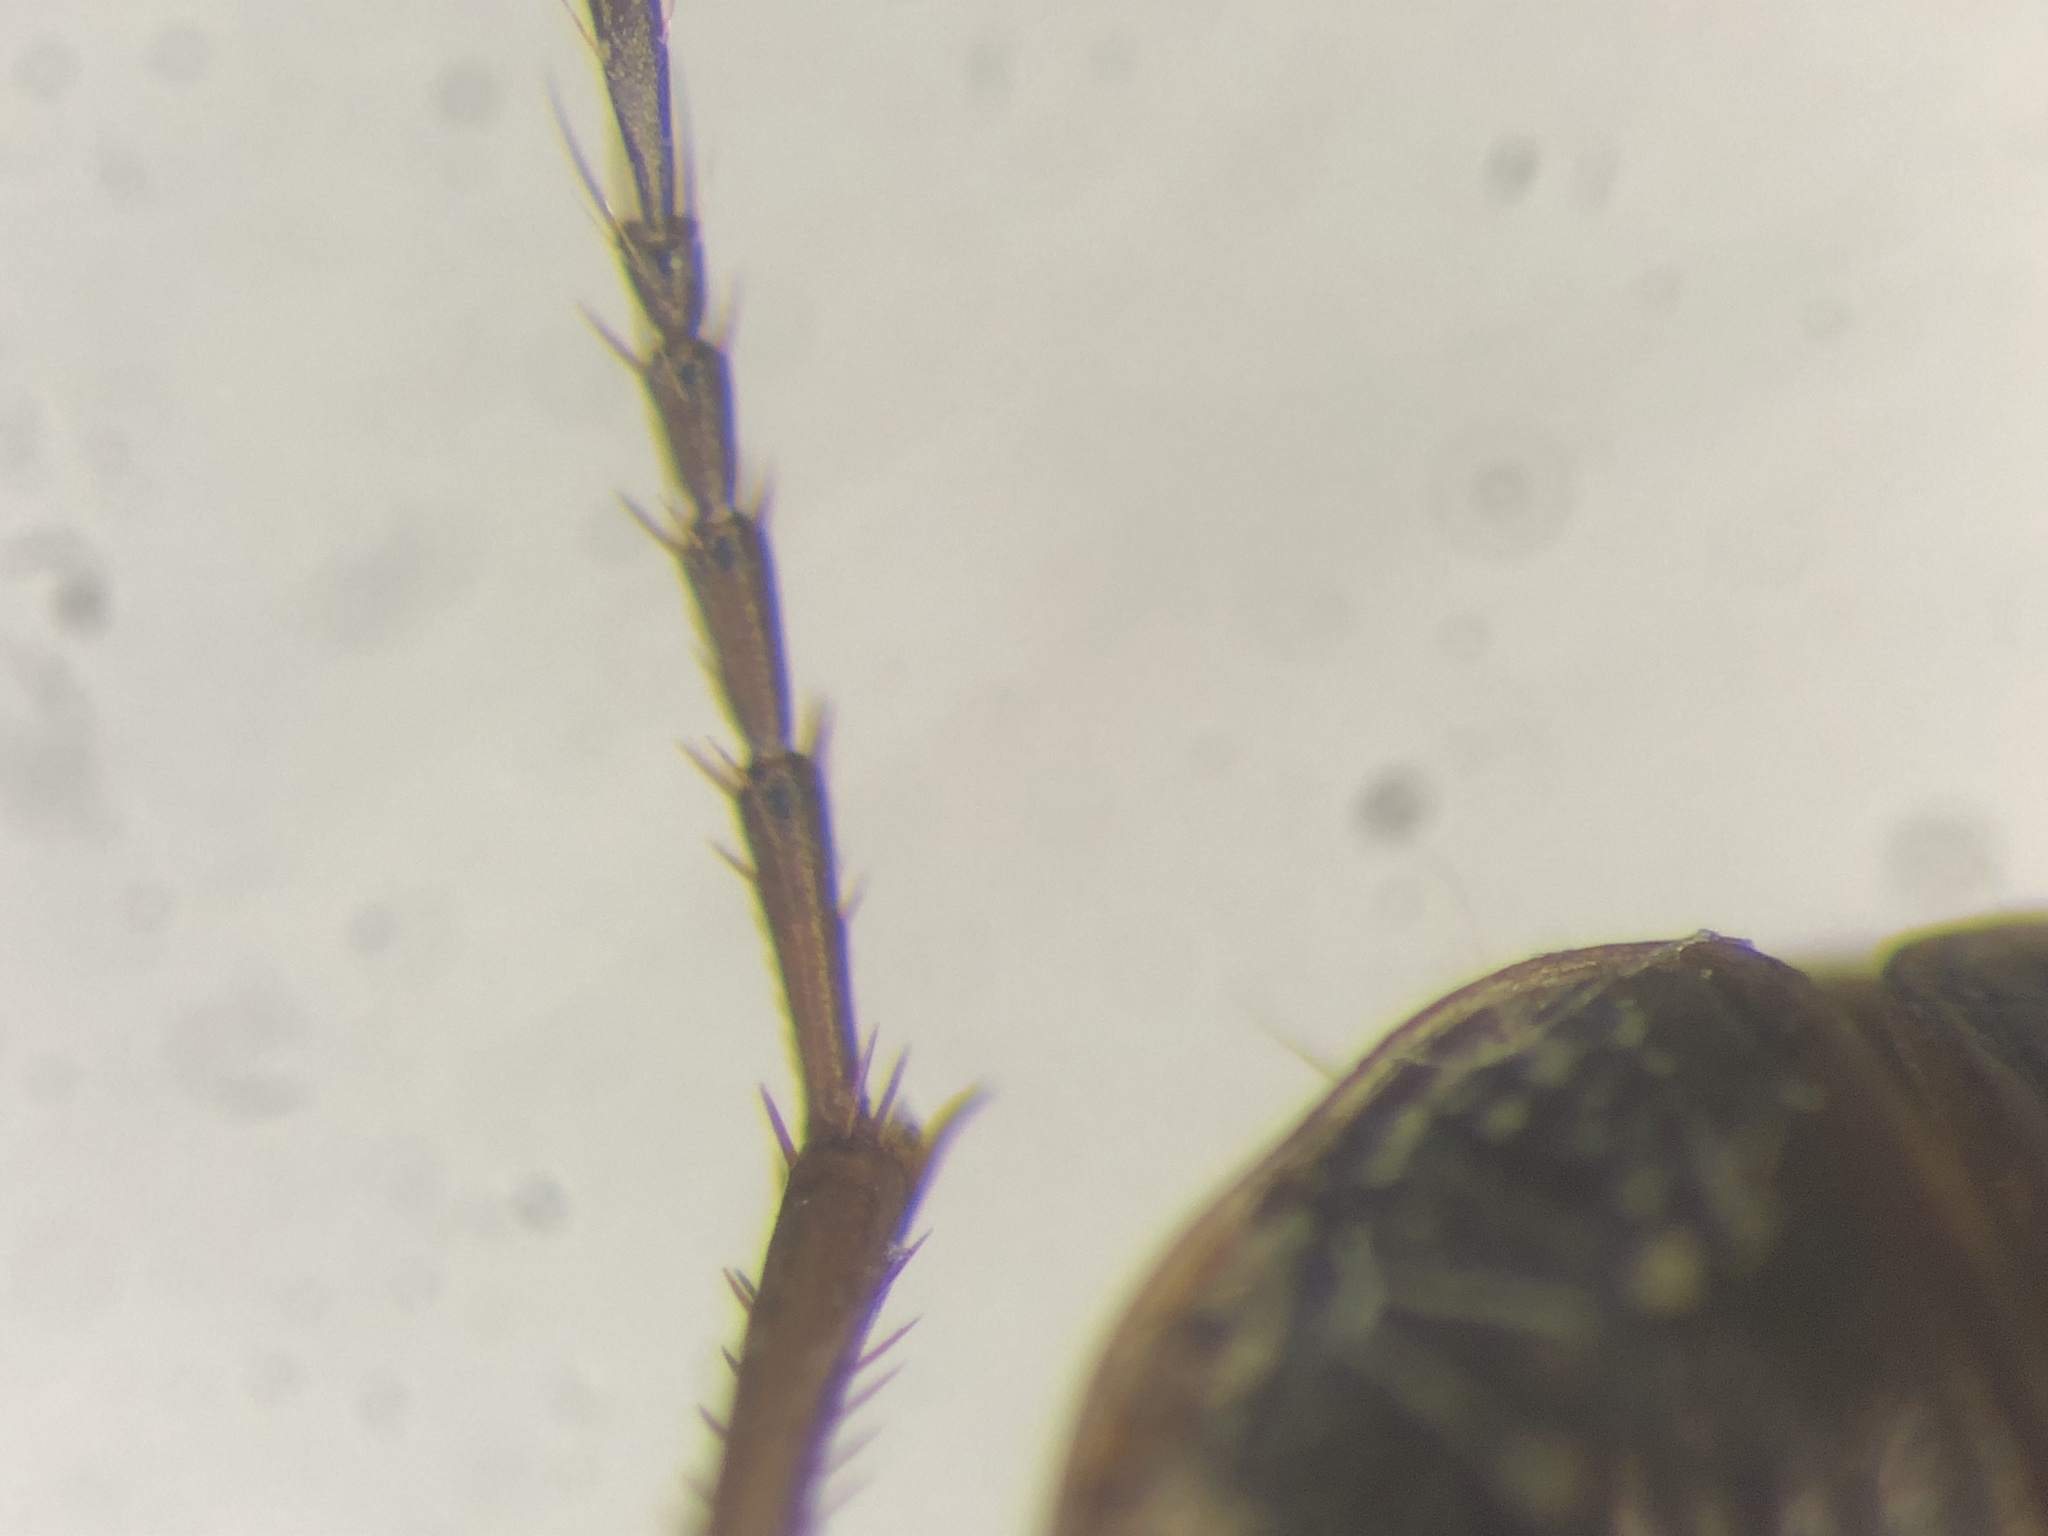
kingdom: Animalia
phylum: Arthropoda
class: Insecta
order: Coleoptera
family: Carabidae
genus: Agonum
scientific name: Agonum retractum
